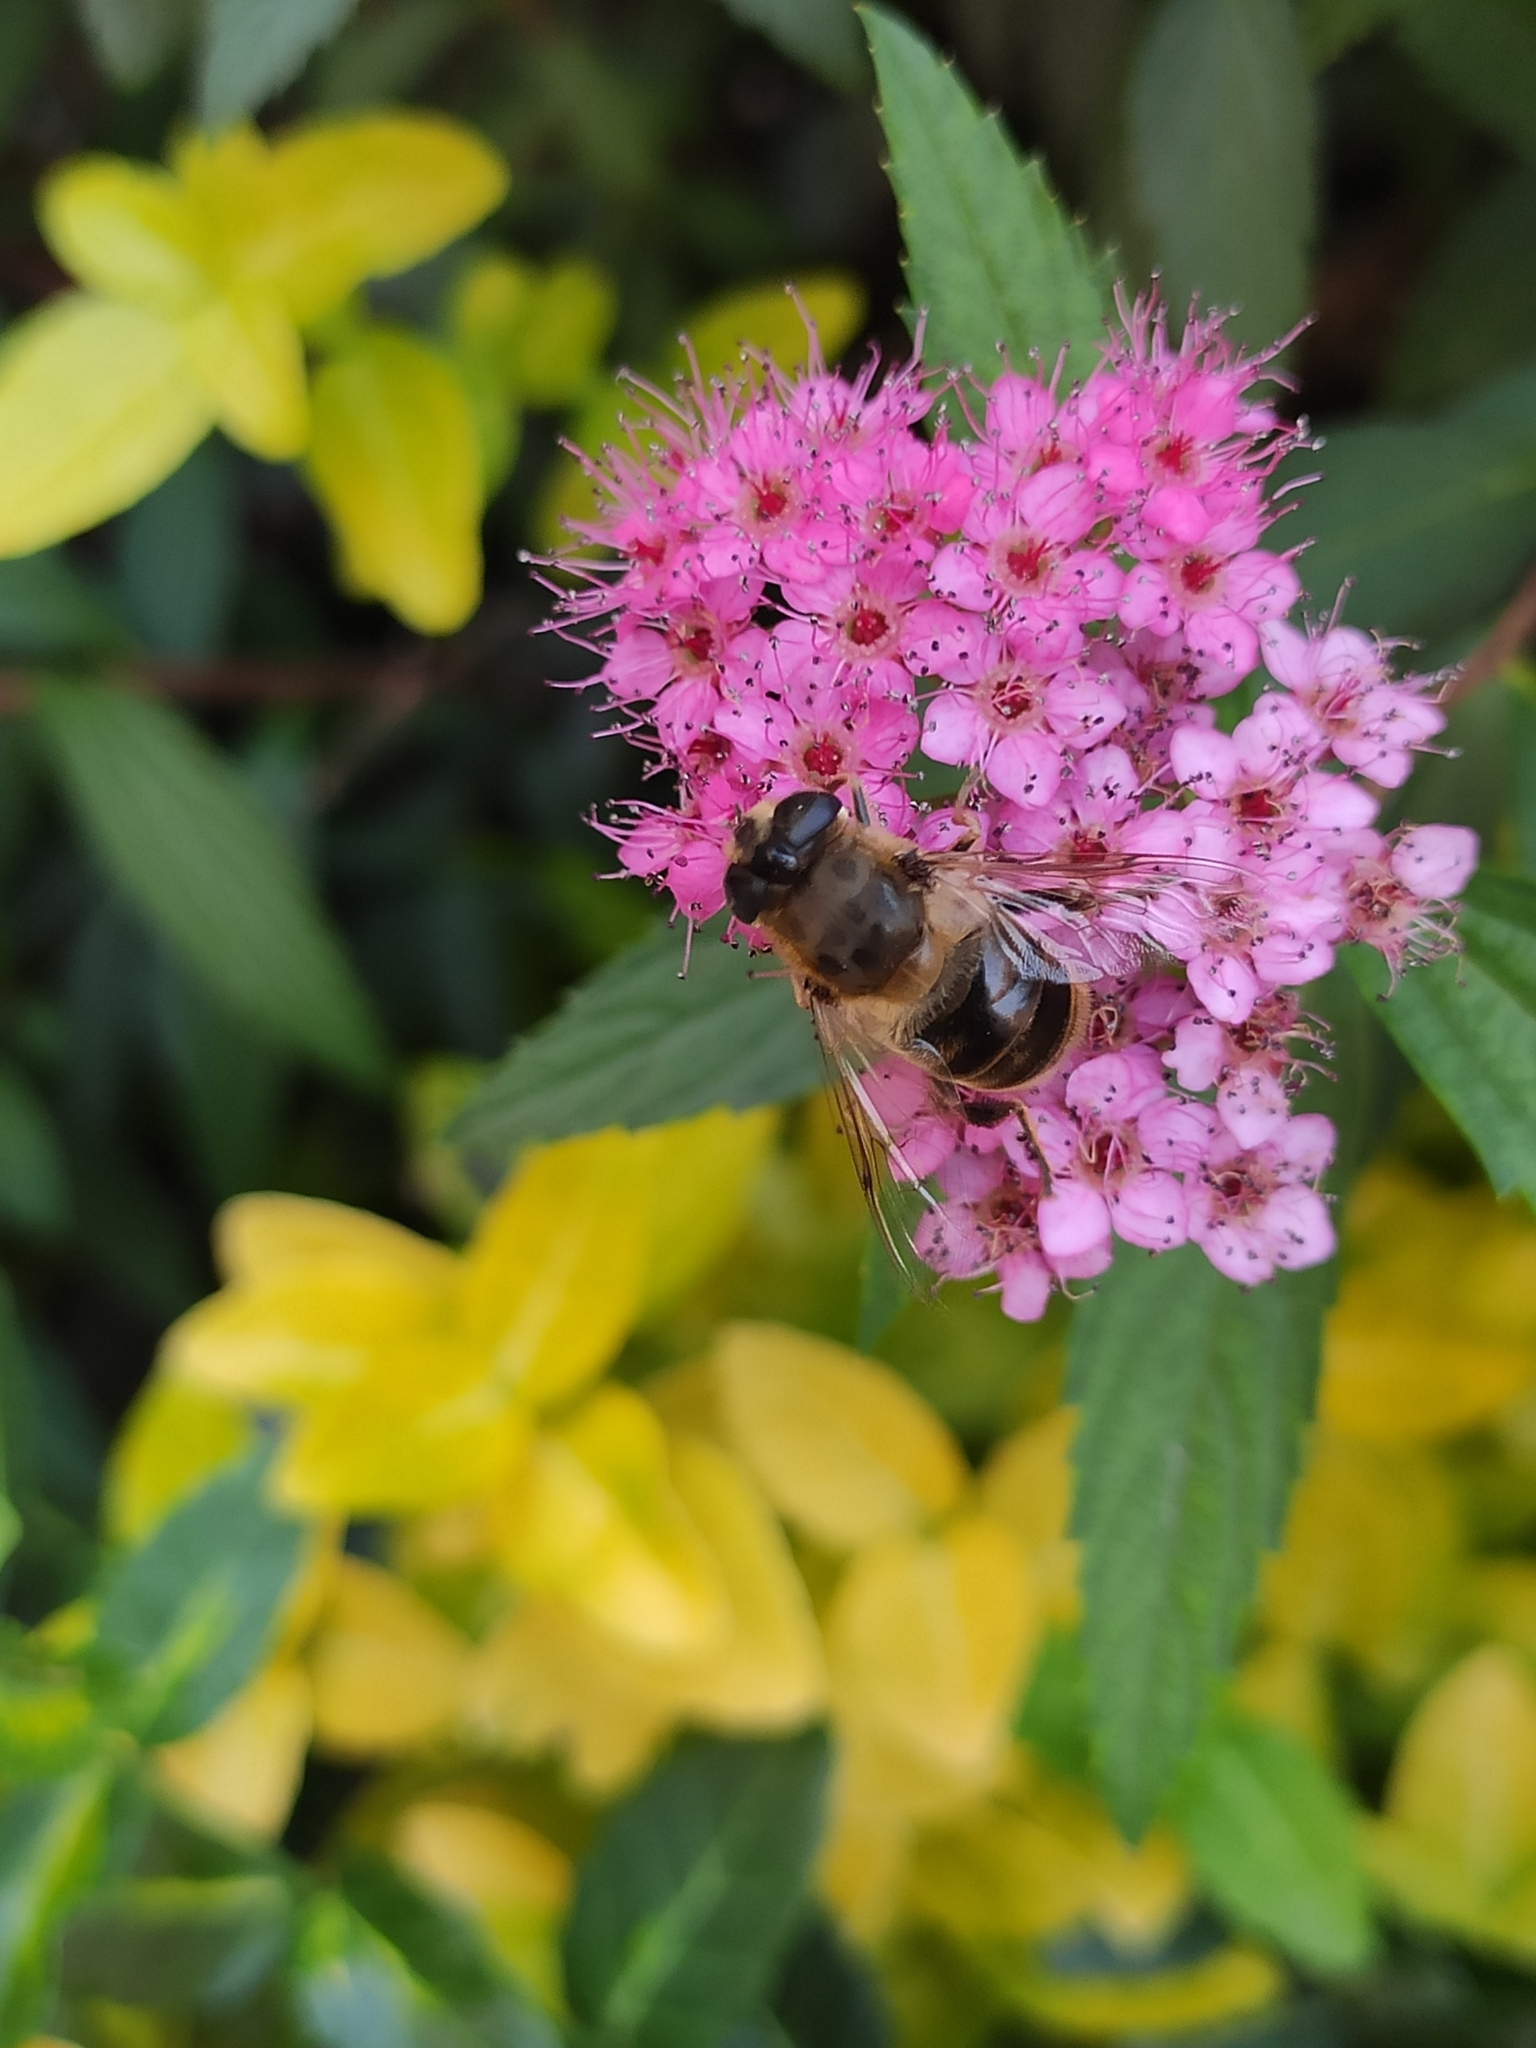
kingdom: Animalia
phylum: Arthropoda
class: Insecta
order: Diptera
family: Syrphidae
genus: Eristalis
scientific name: Eristalis tenax
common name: Drone fly
